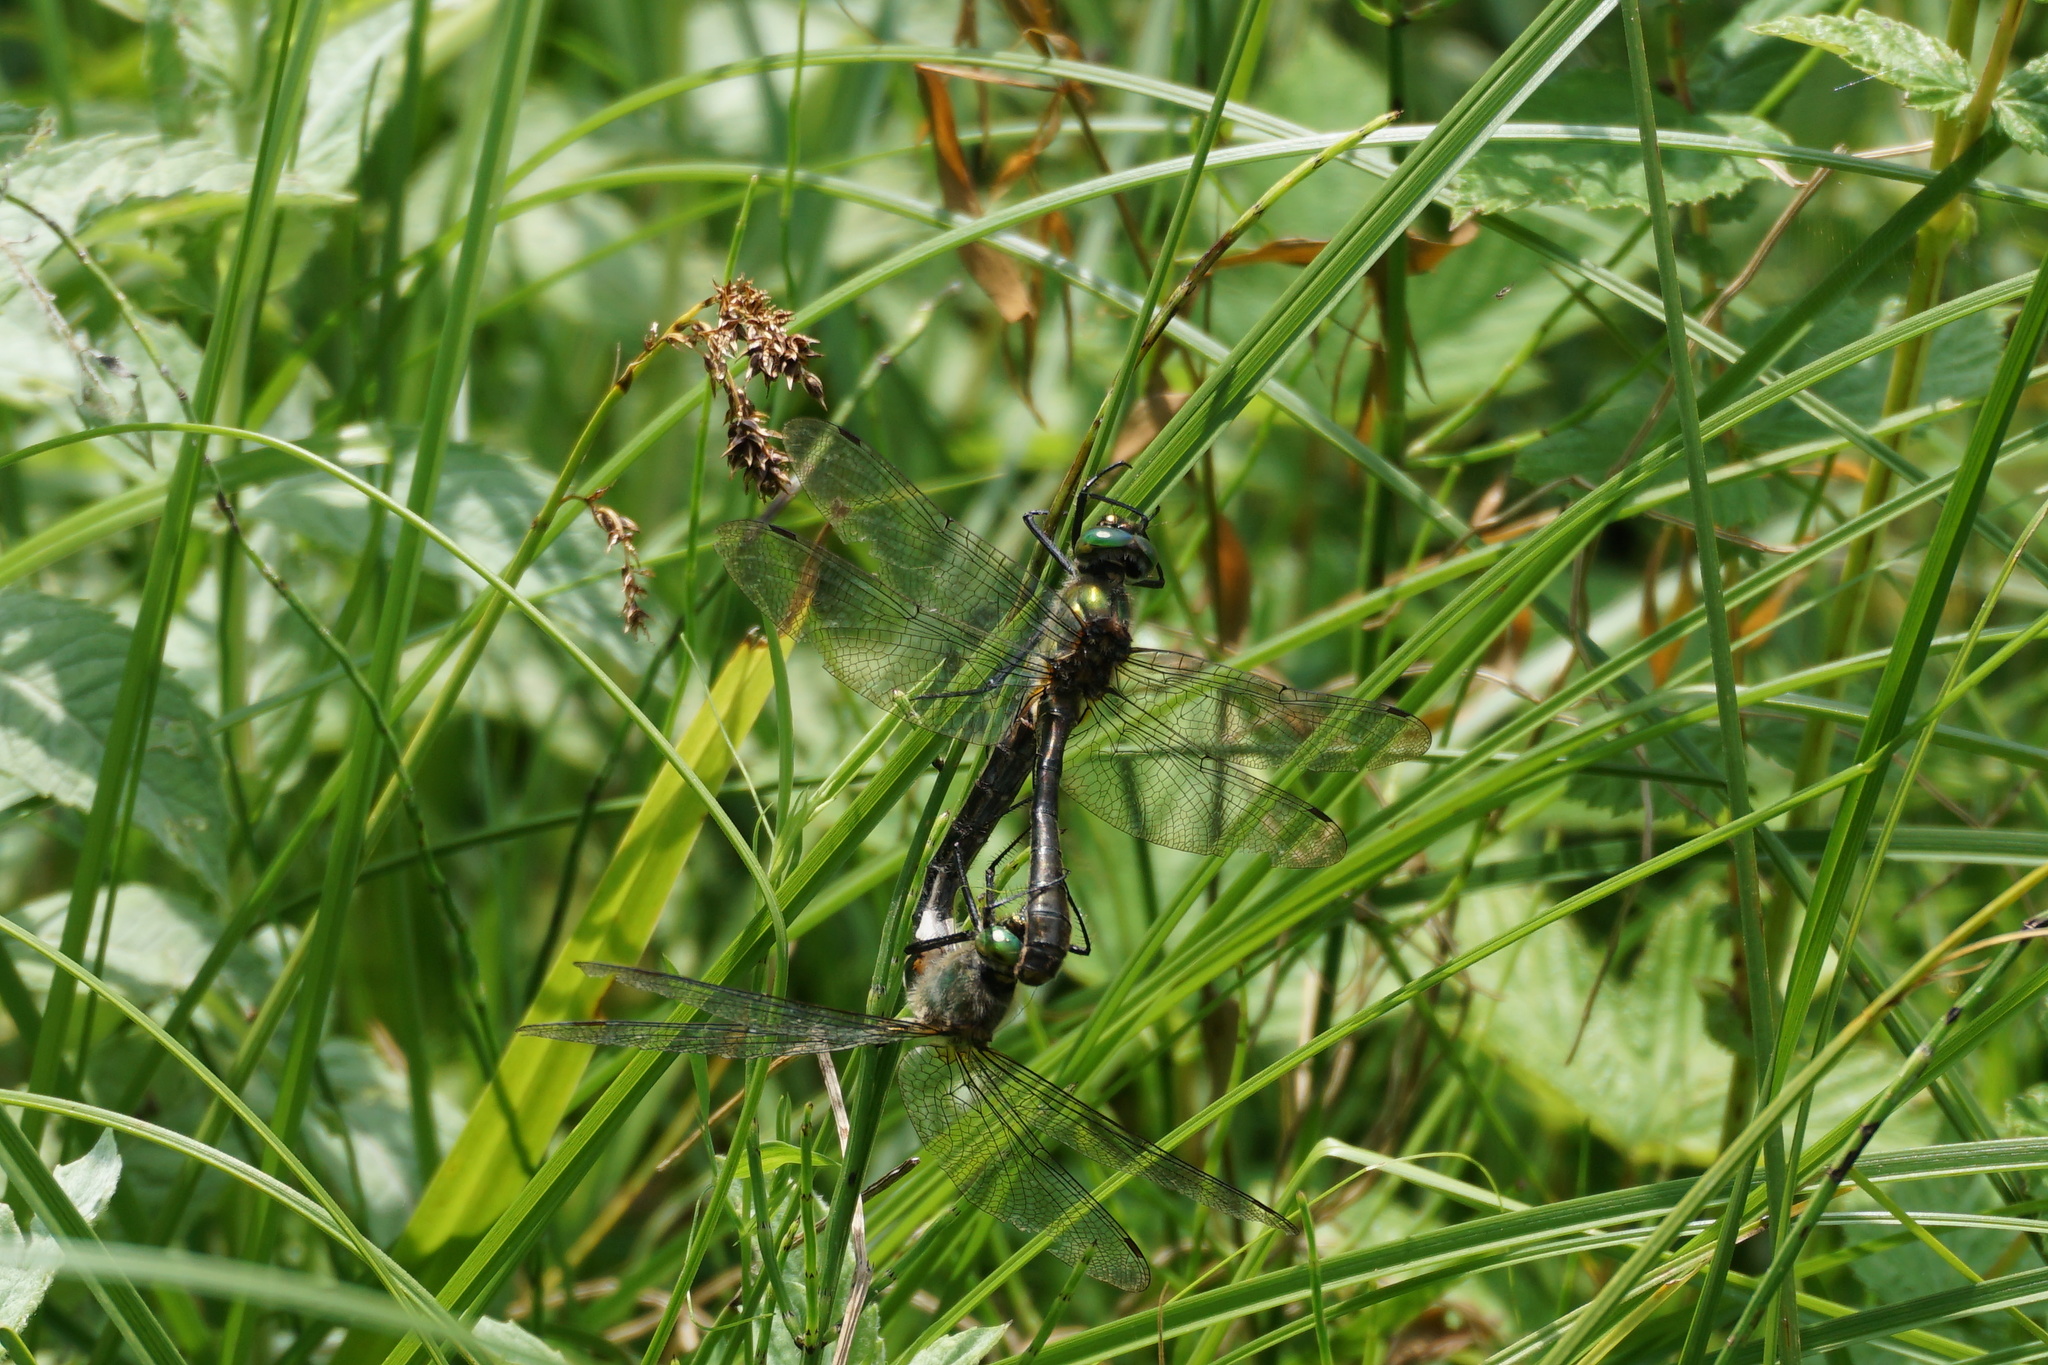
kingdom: Animalia
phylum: Arthropoda
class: Insecta
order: Odonata
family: Corduliidae
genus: Cordulia
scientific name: Cordulia aenea
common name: Downy emerald
